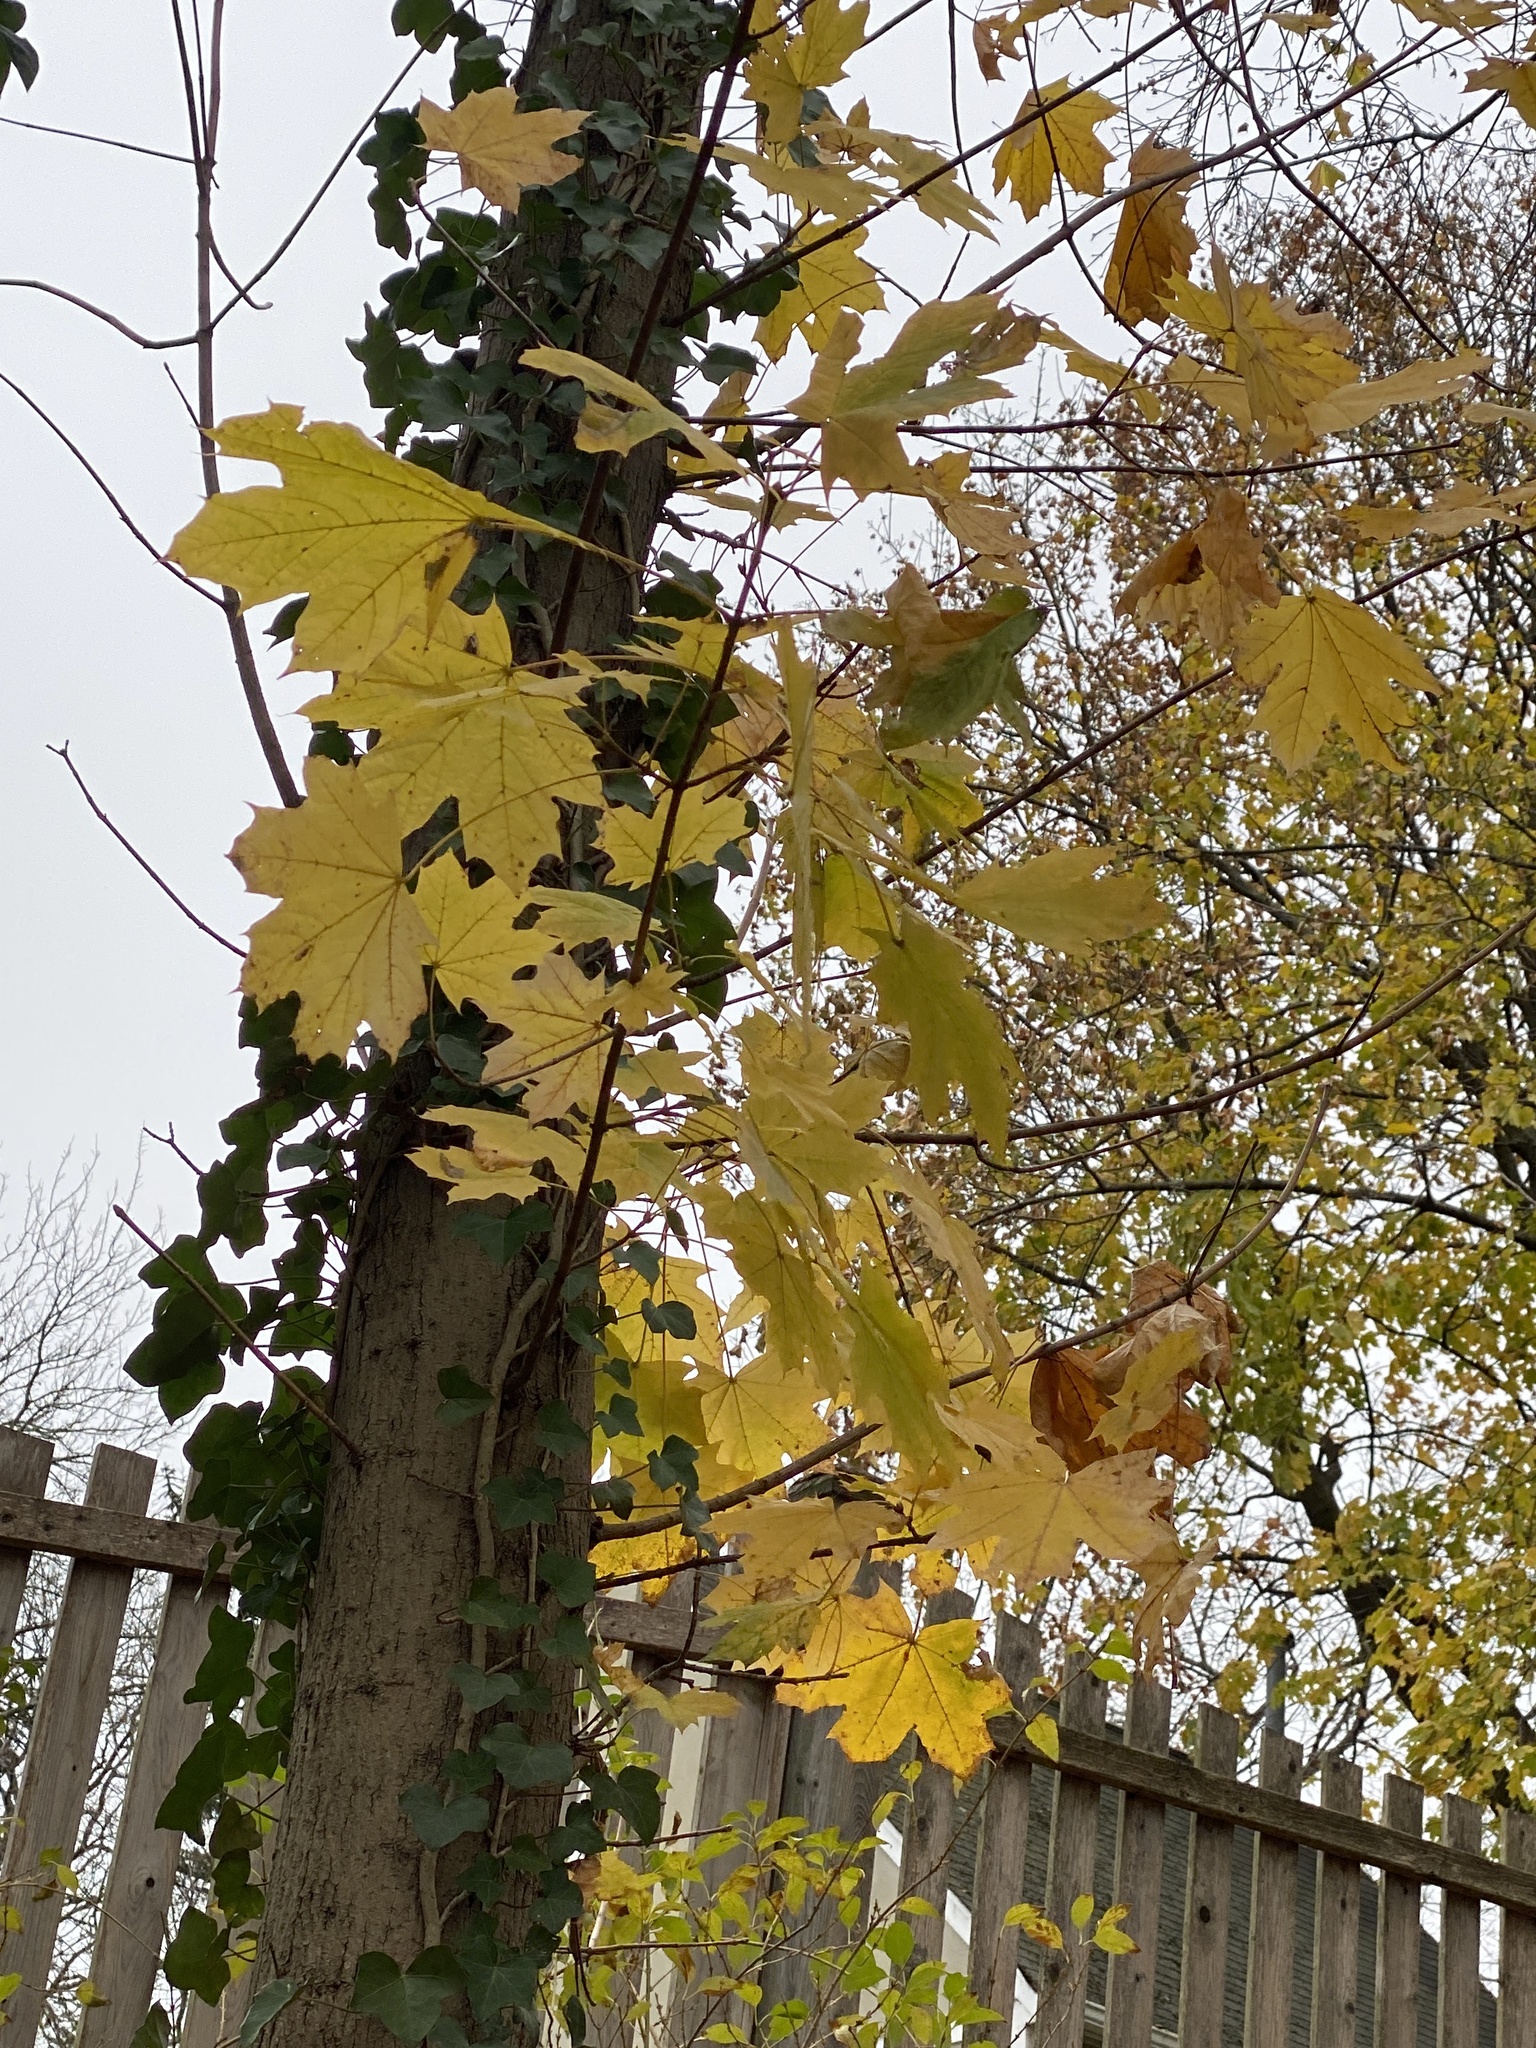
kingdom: Plantae
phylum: Tracheophyta
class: Magnoliopsida
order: Sapindales
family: Sapindaceae
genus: Acer
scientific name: Acer platanoides
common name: Norway maple
